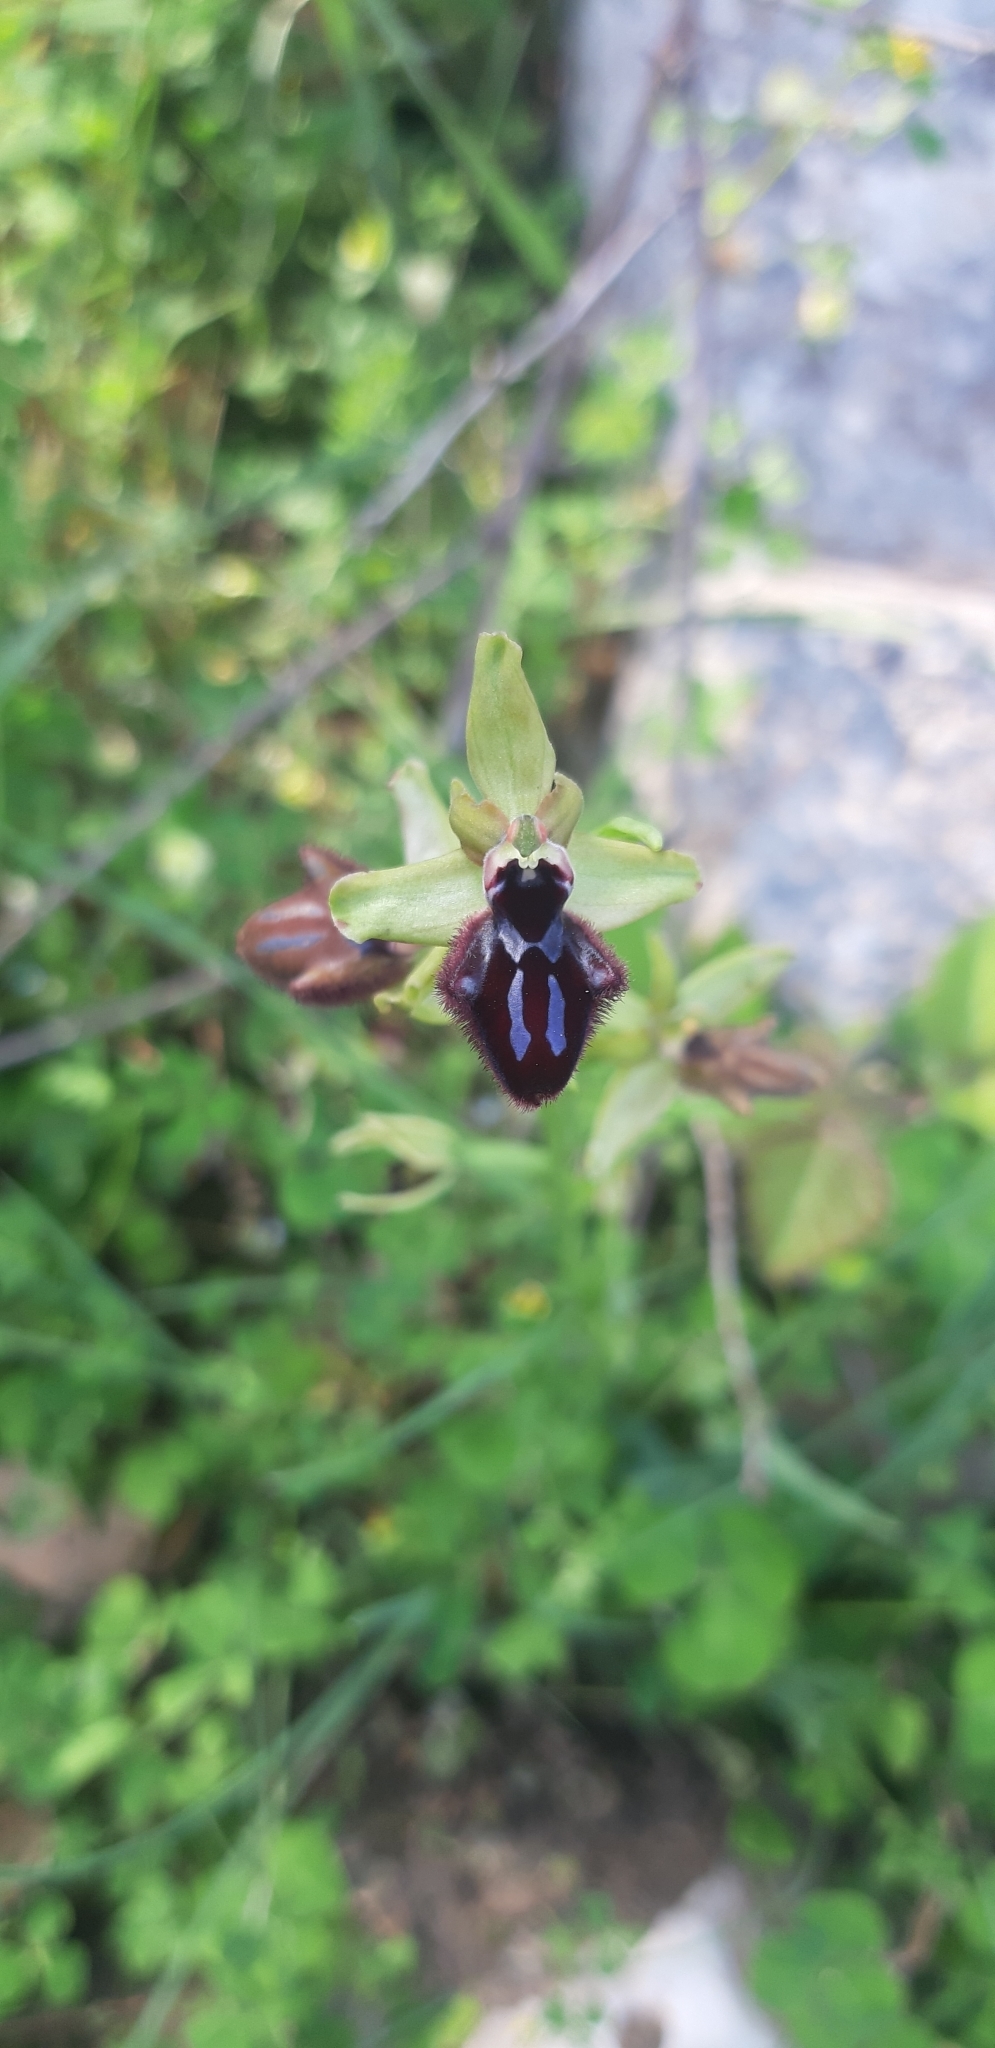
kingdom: Plantae
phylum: Tracheophyta
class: Liliopsida
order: Asparagales
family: Orchidaceae
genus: Ophrys
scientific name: Ophrys sphegodes
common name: Early spider-orchid
